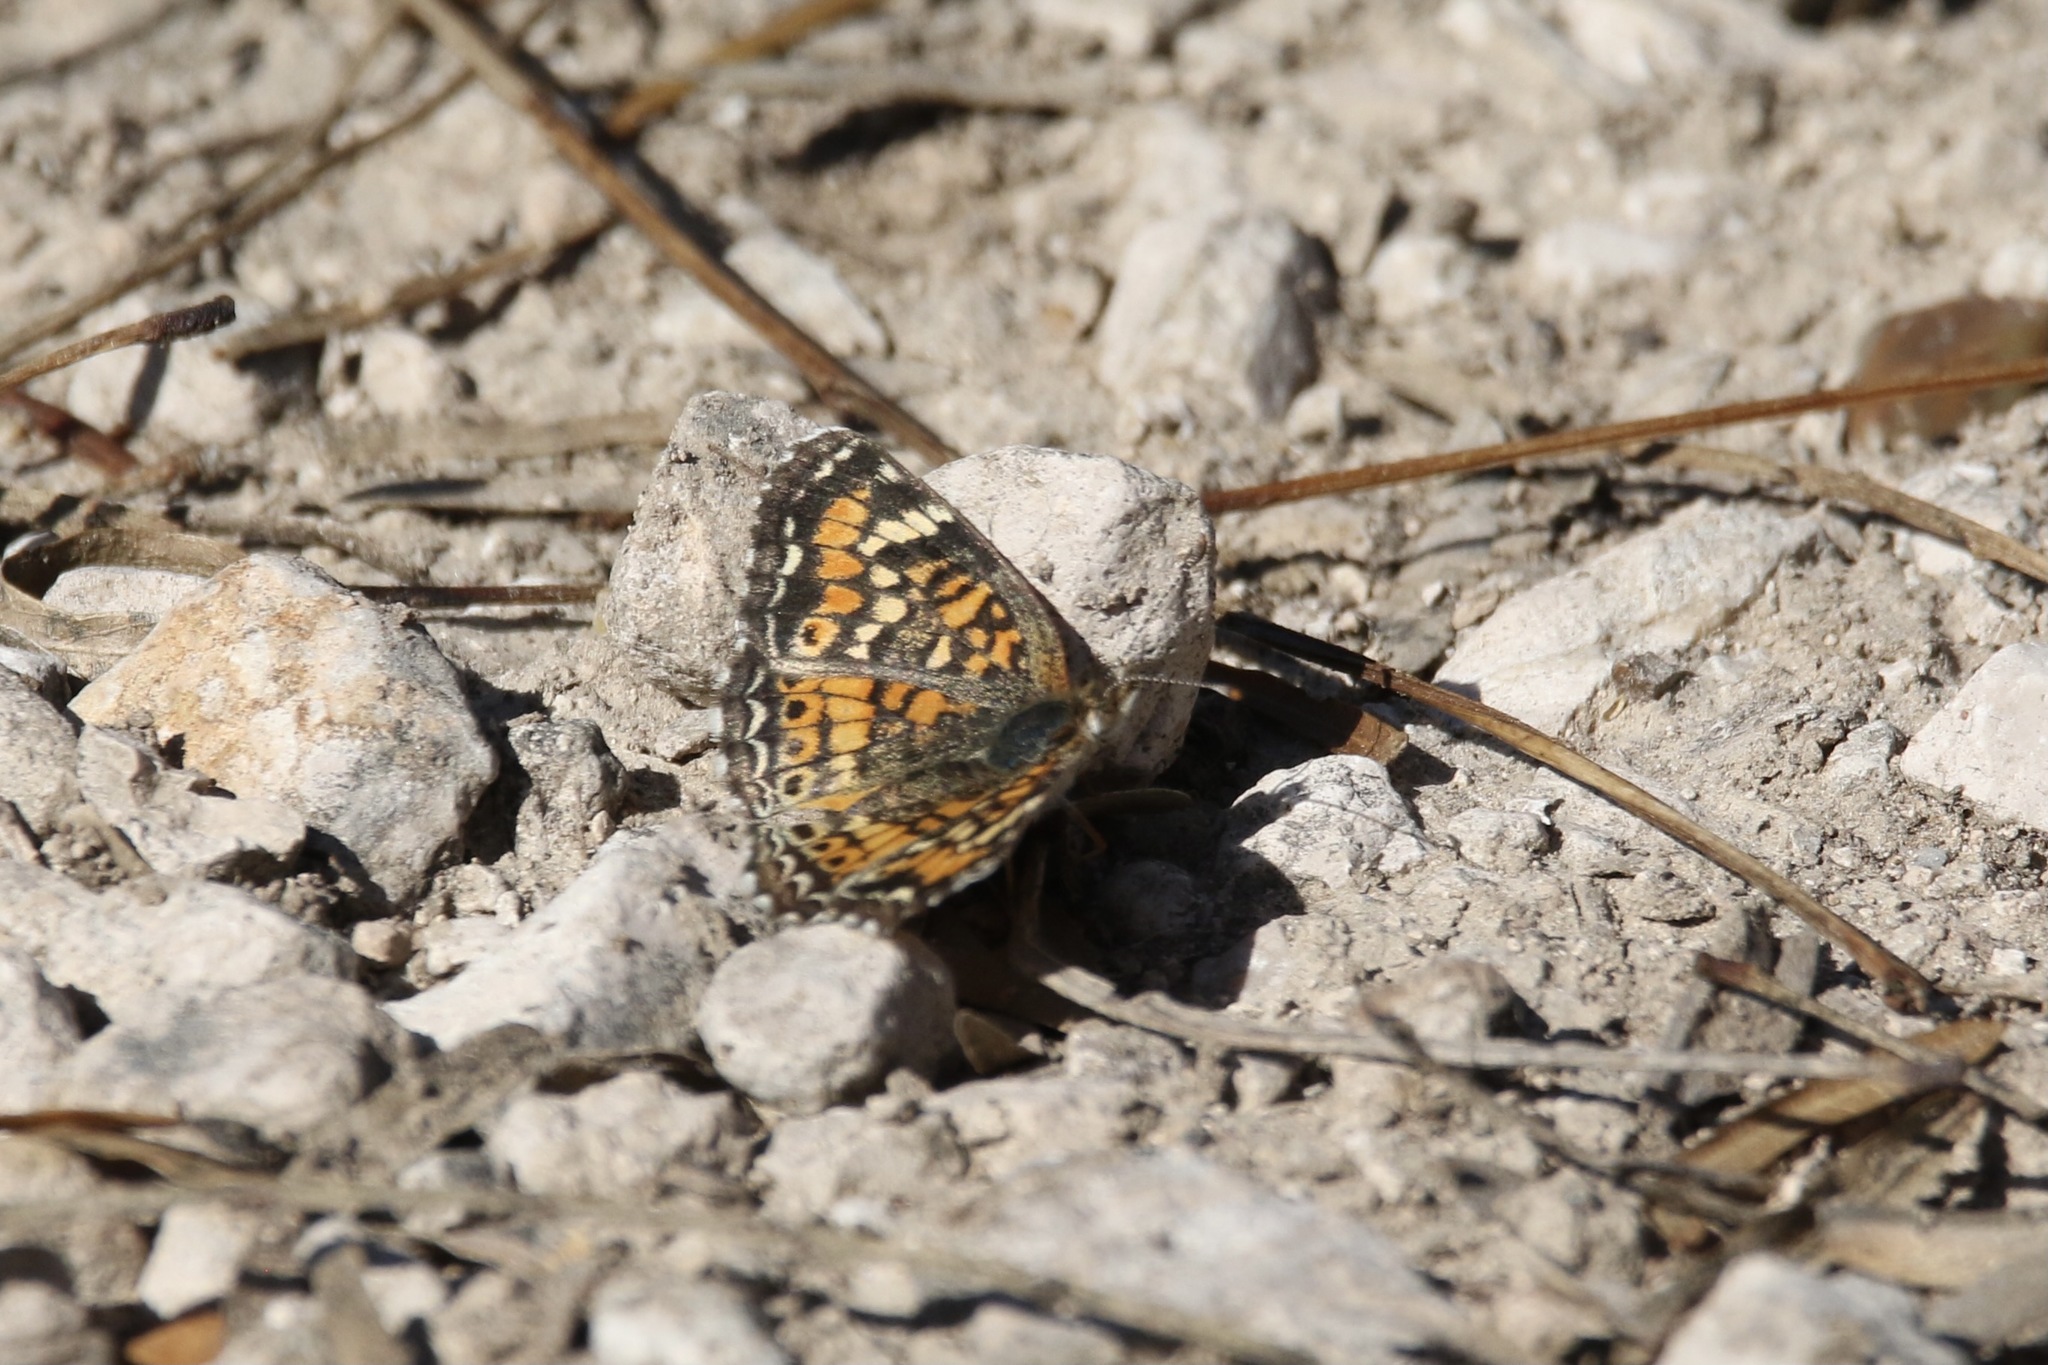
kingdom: Animalia
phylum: Arthropoda
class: Insecta
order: Lepidoptera
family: Nymphalidae
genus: Phyciodes
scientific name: Phyciodes phaon
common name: Phaon crescent
